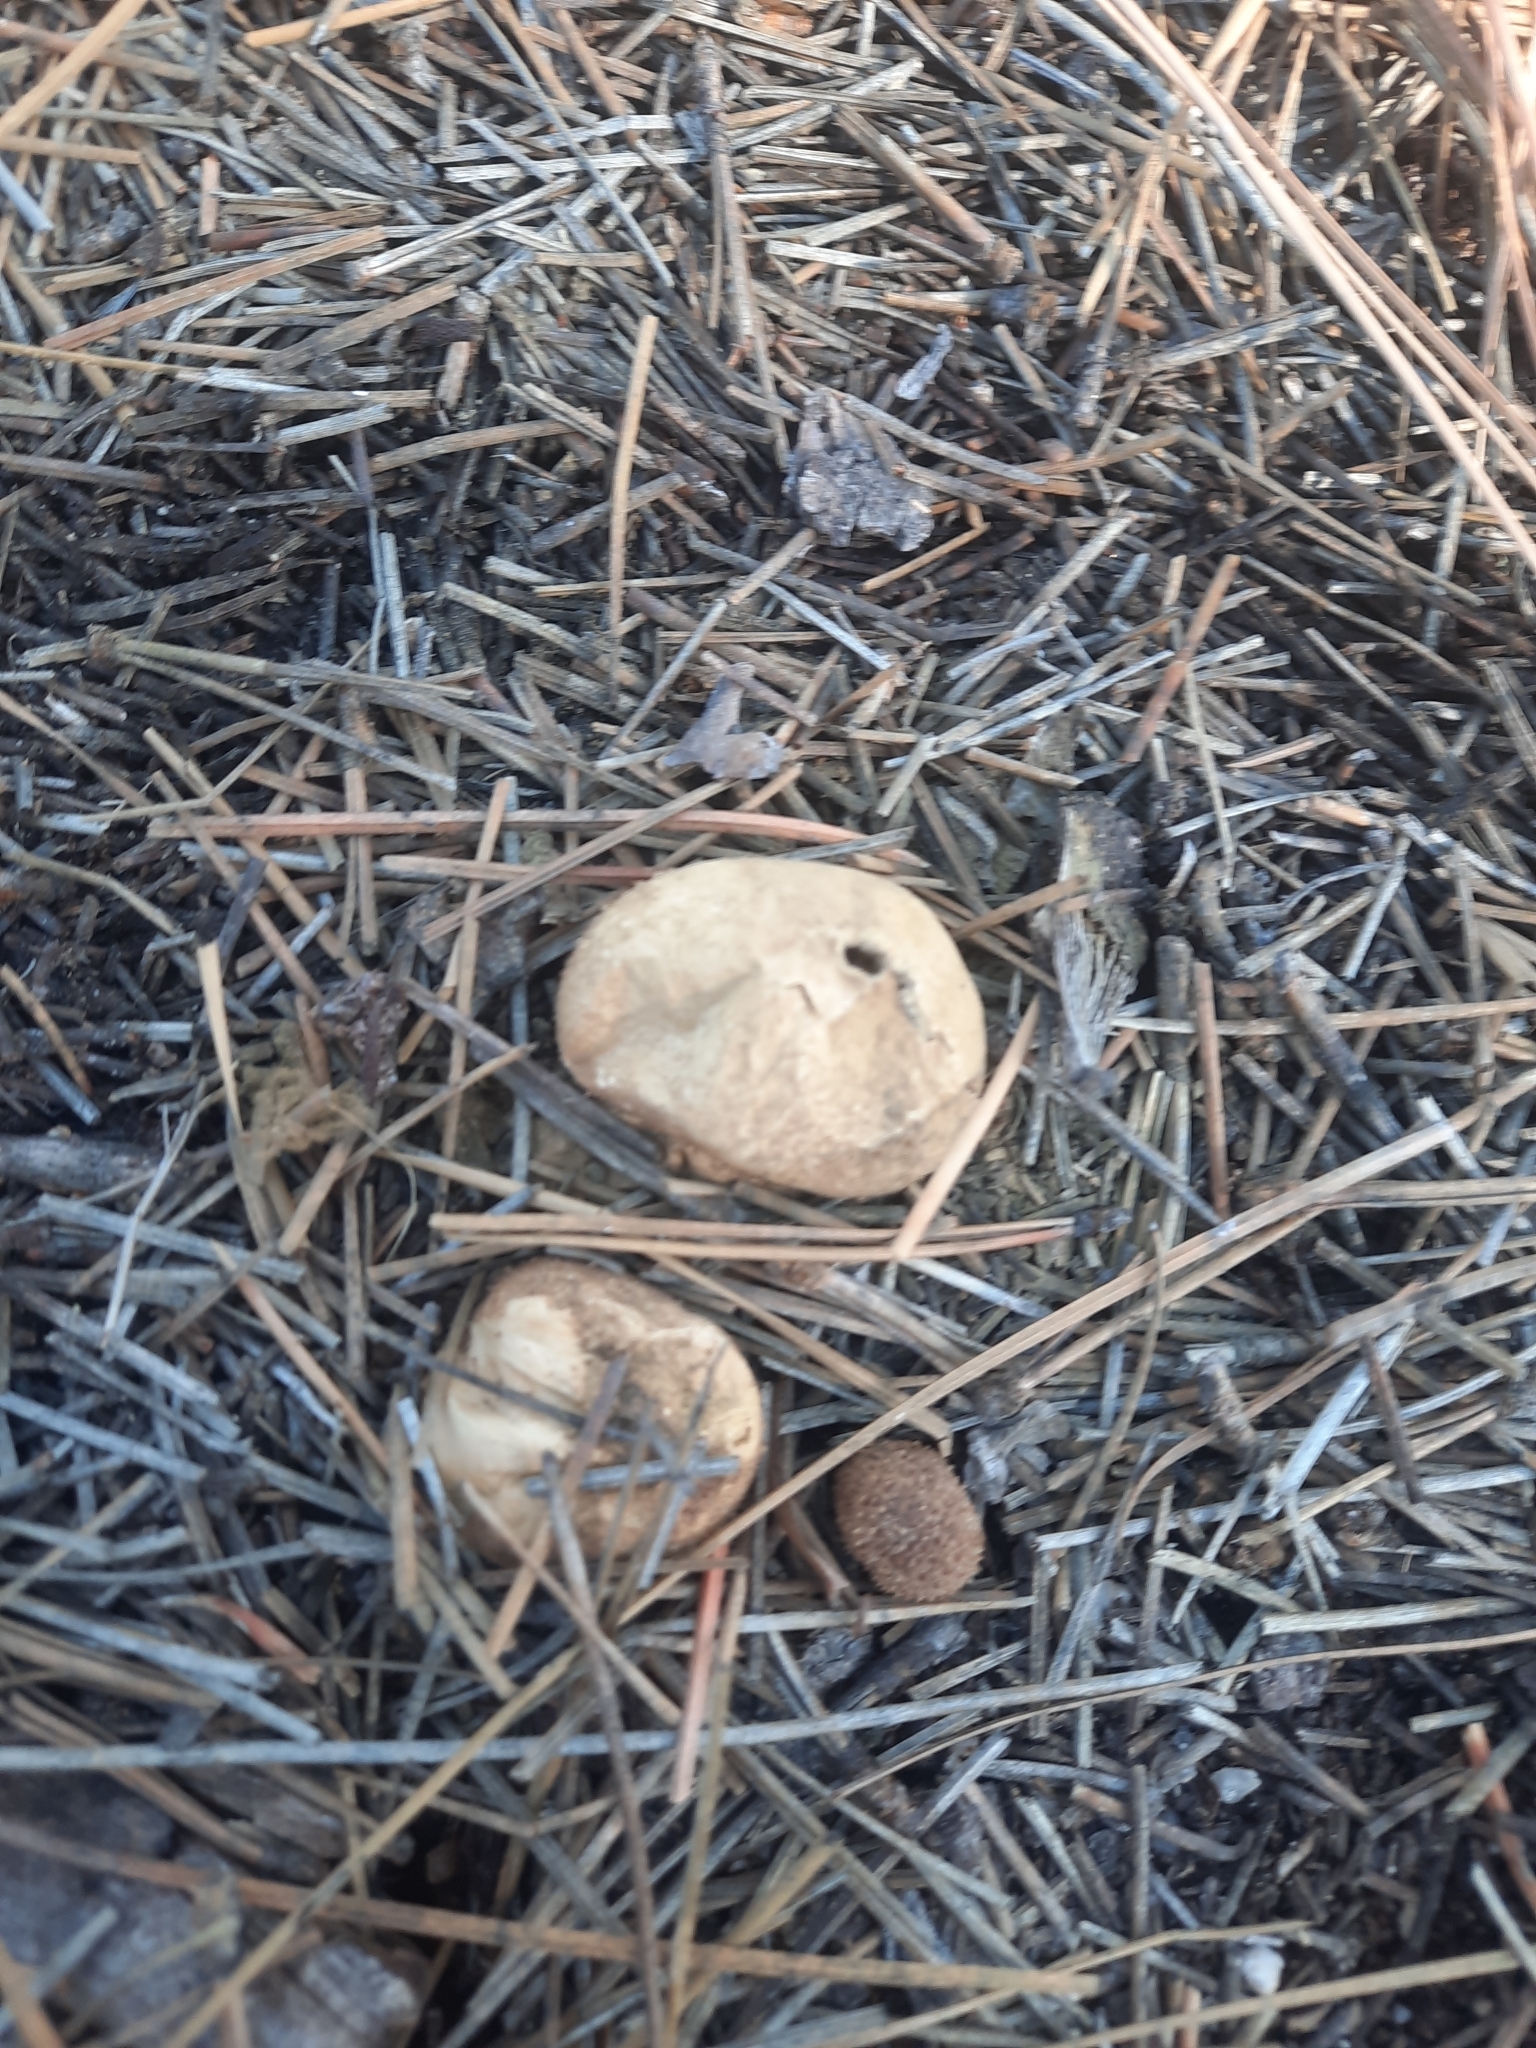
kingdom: Fungi
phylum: Basidiomycota
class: Agaricomycetes
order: Agaricales
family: Lycoperdaceae
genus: Lycoperdon
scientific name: Lycoperdon umbrinum
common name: Umber-brown puffball
